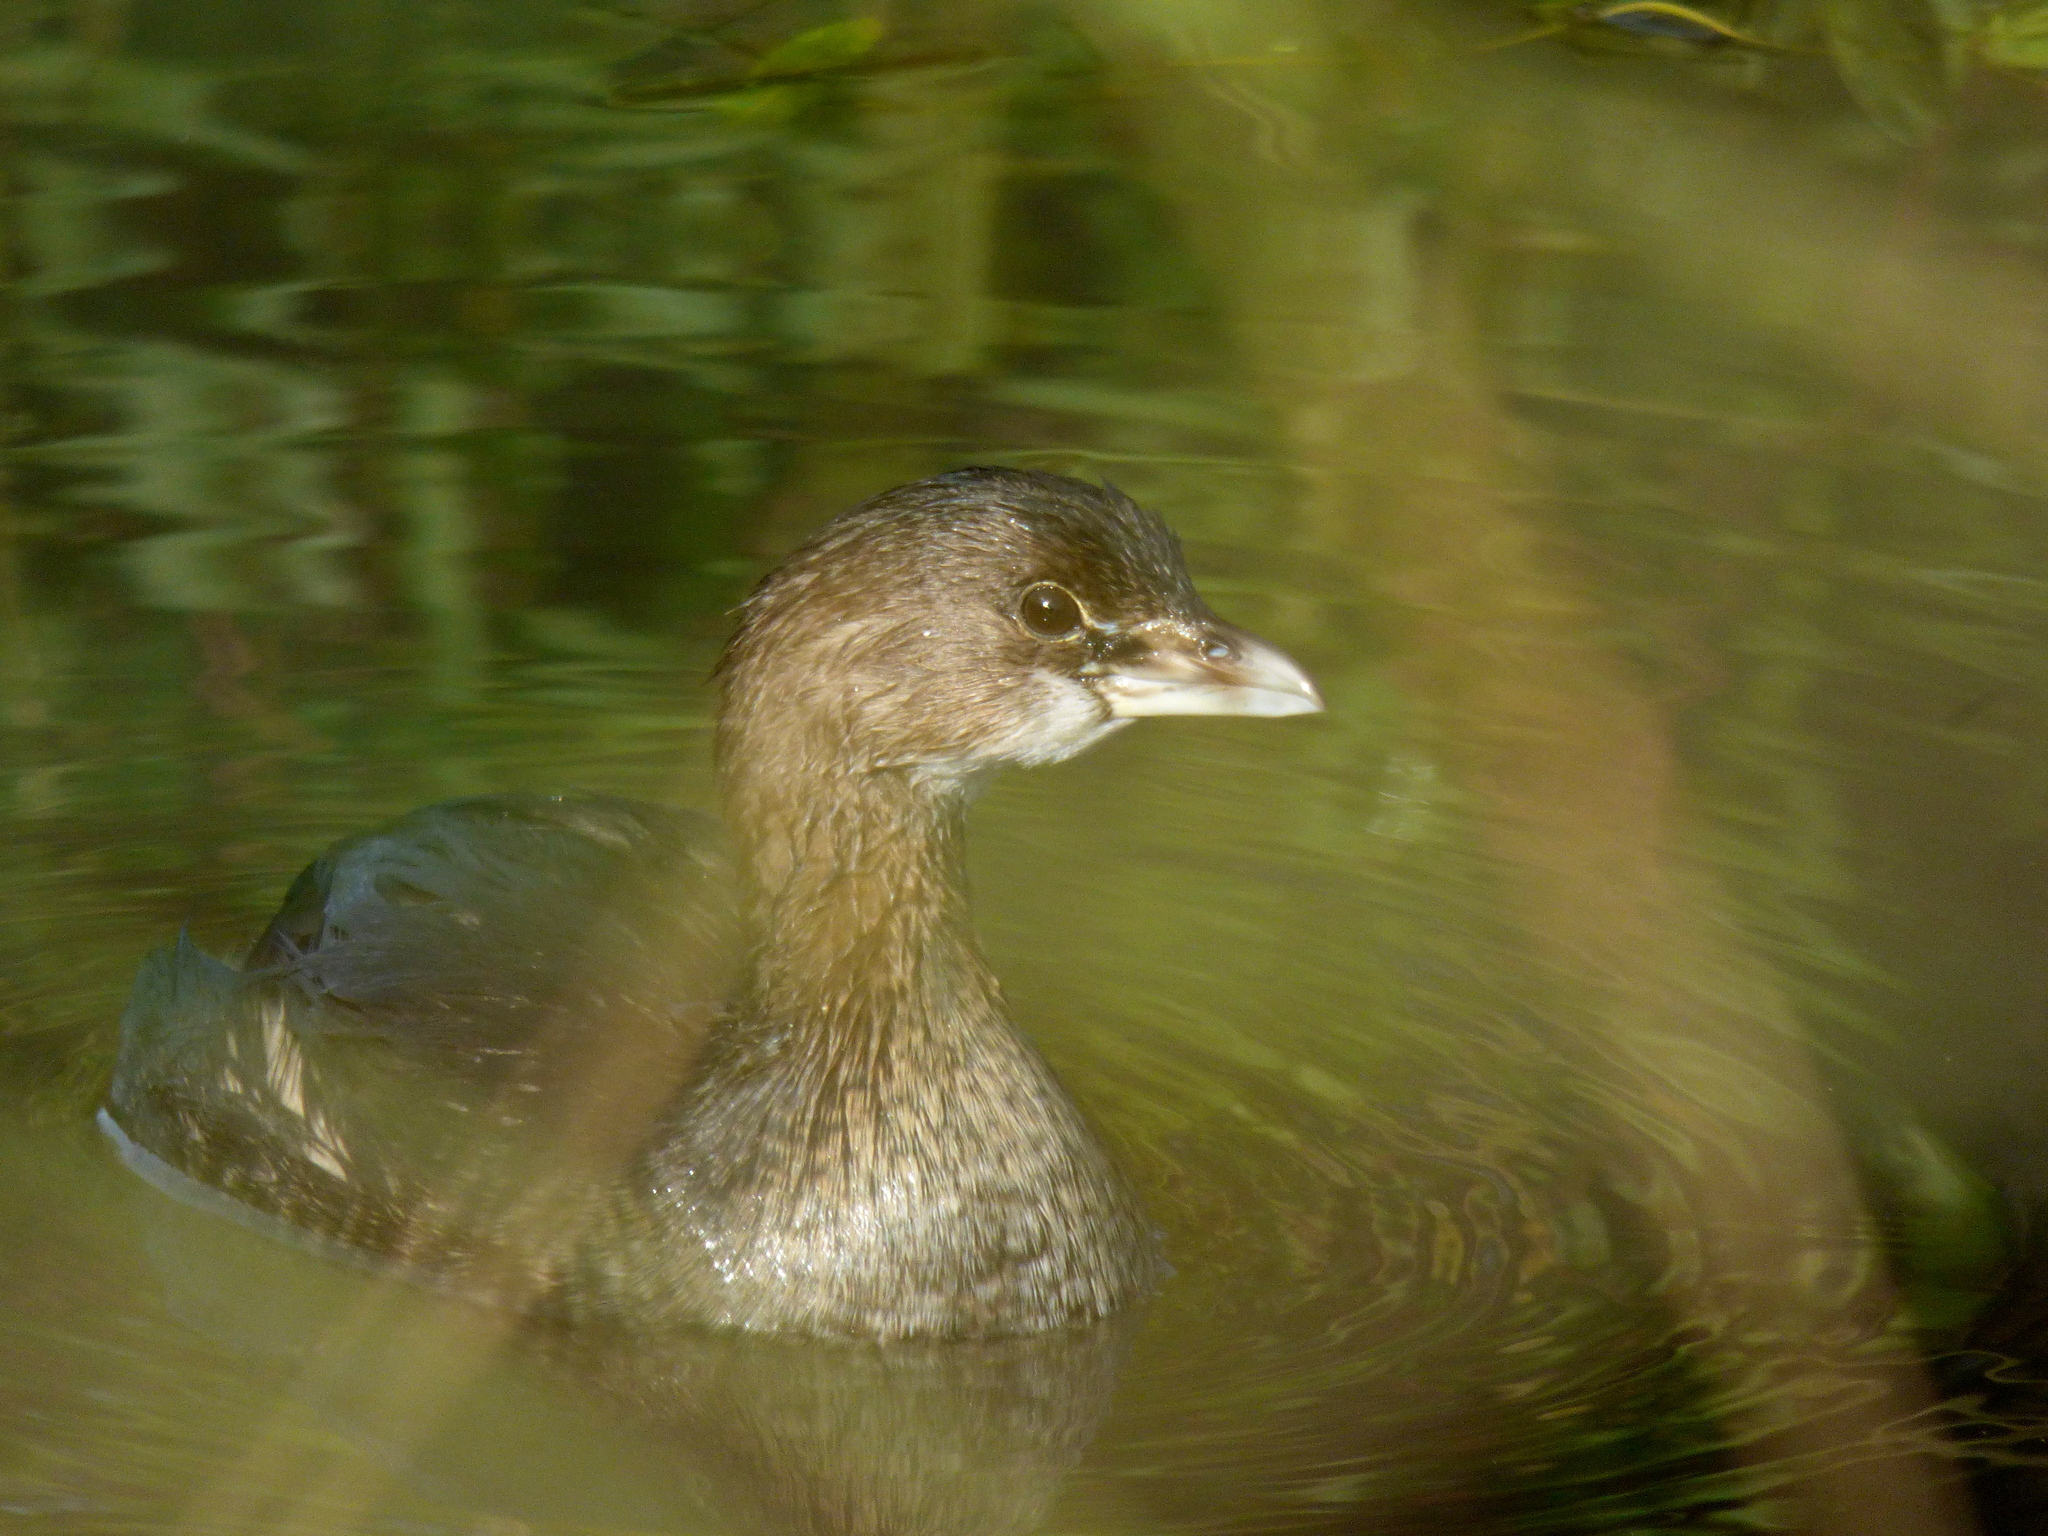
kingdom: Animalia
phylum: Chordata
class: Aves
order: Podicipediformes
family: Podicipedidae
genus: Podilymbus
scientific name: Podilymbus podiceps
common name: Pied-billed grebe
